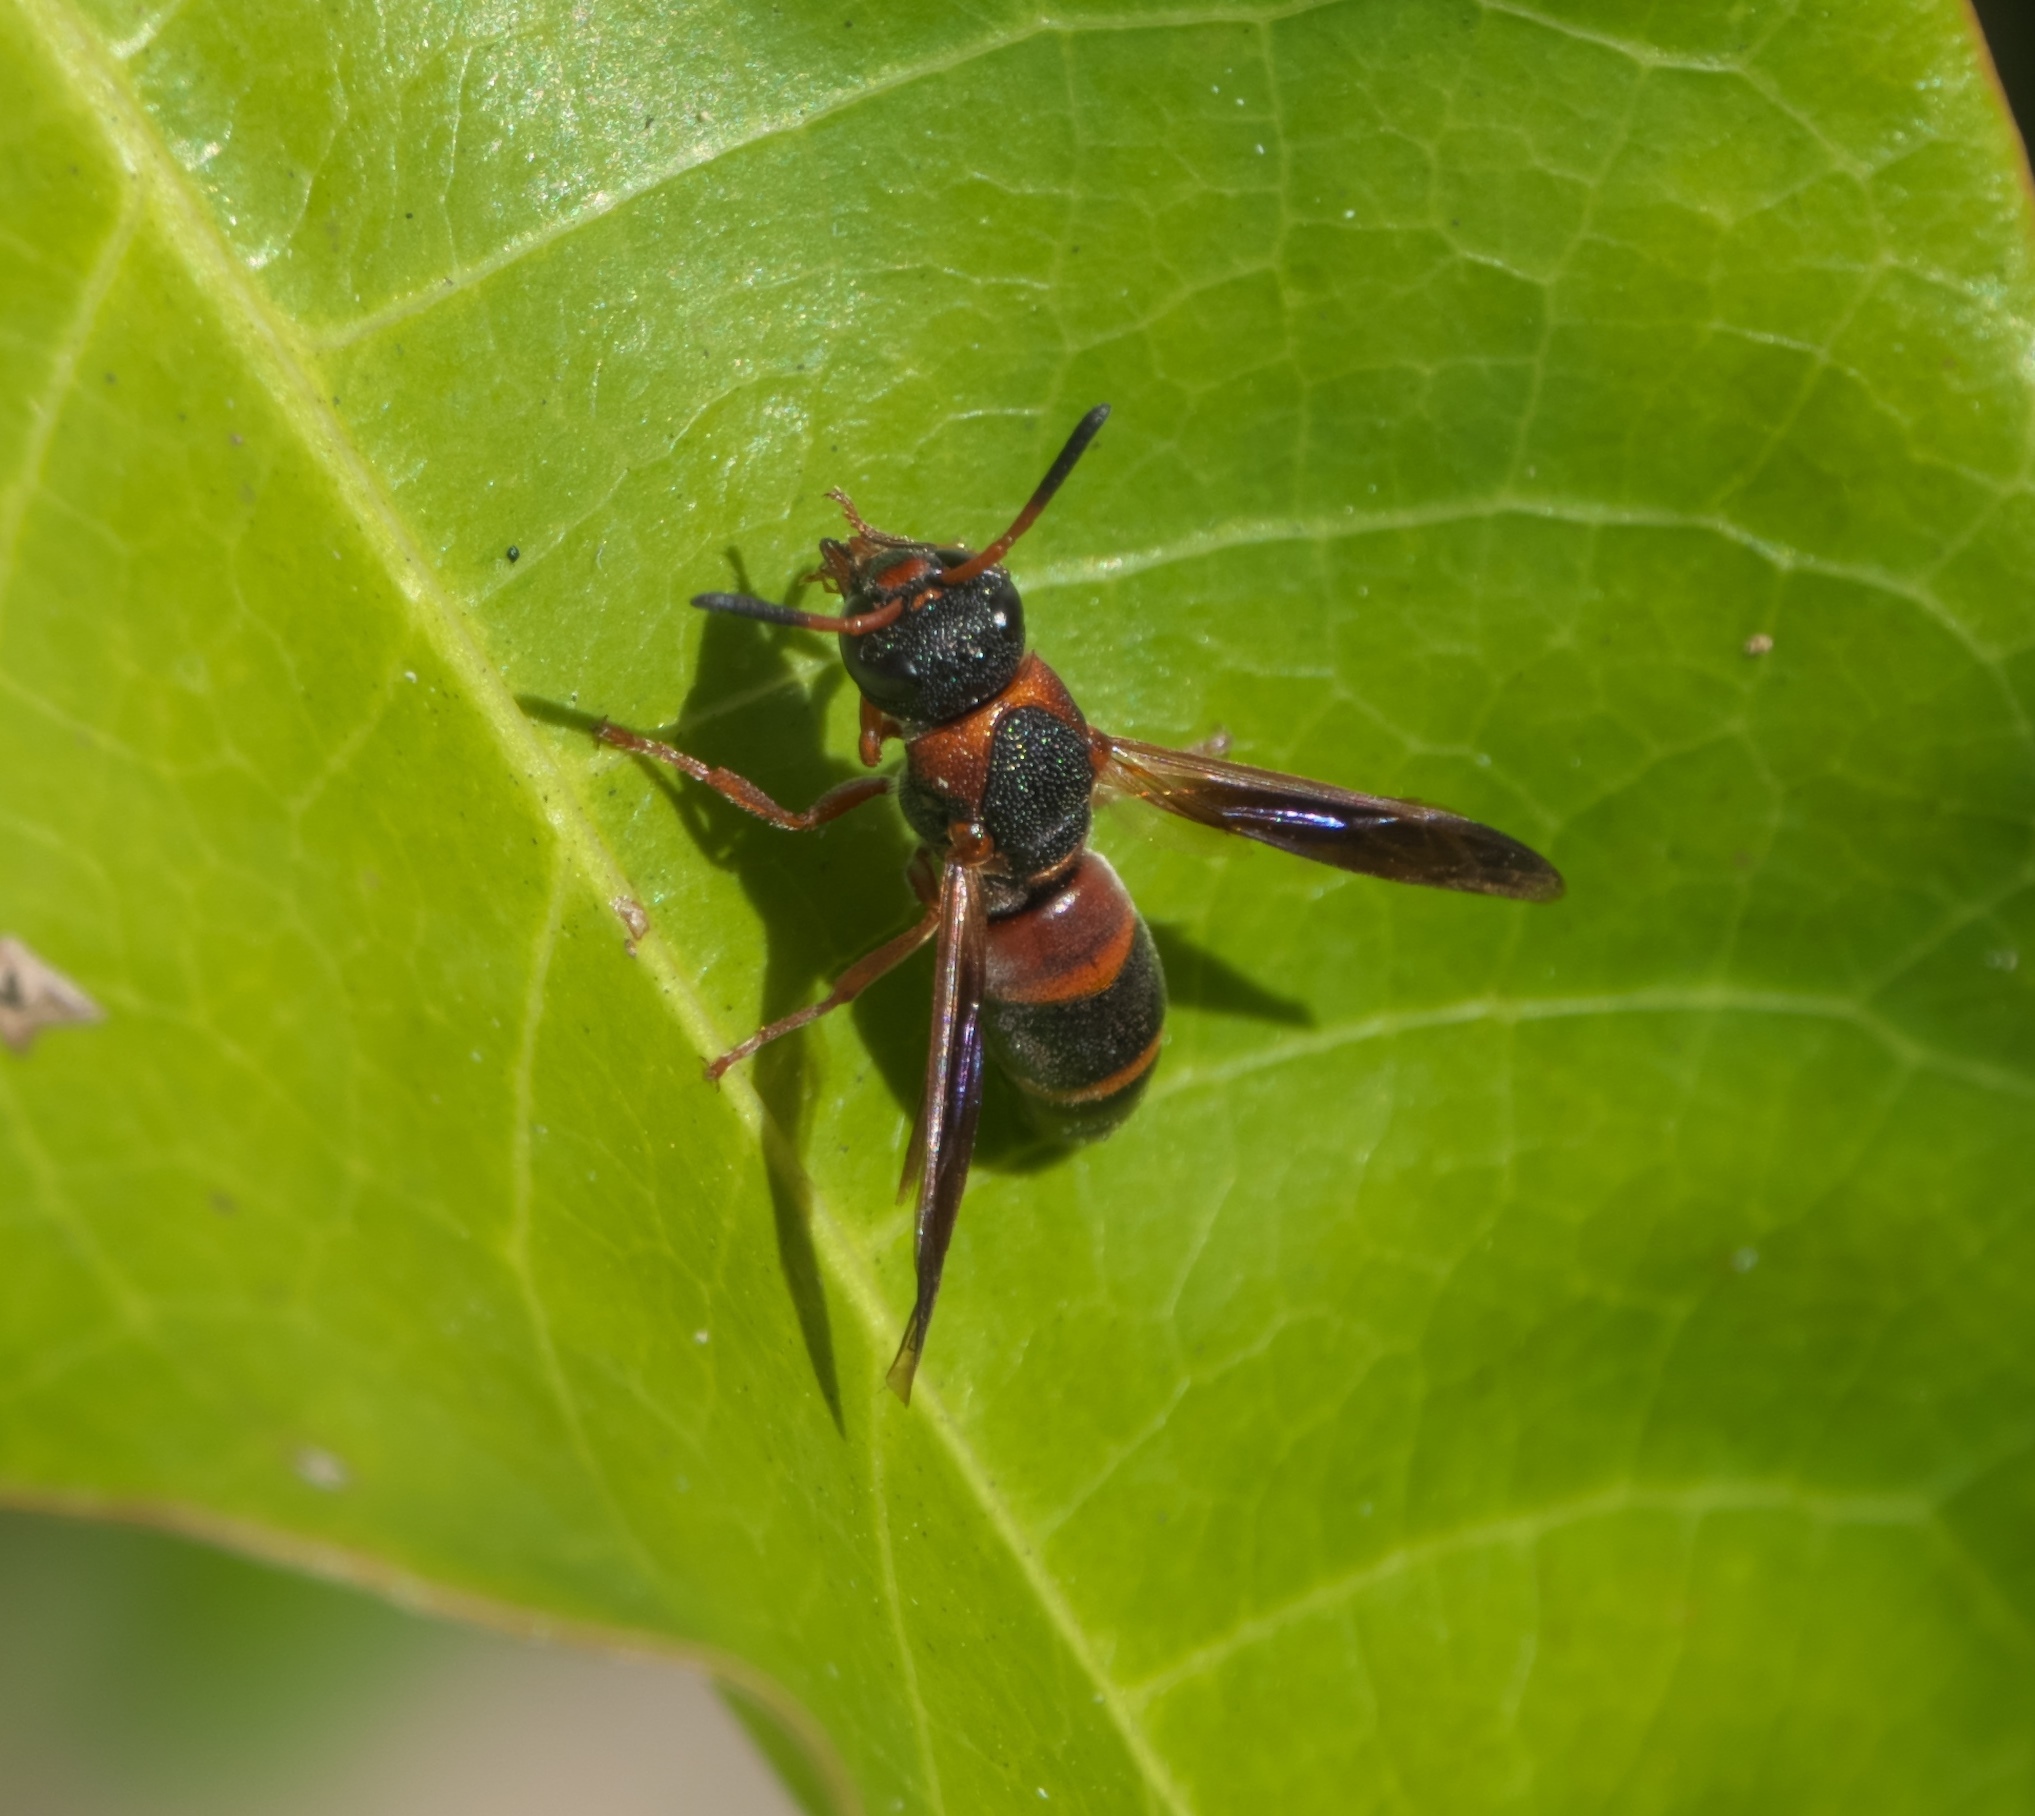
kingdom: Animalia
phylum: Arthropoda
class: Insecta
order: Hymenoptera
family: Eumenidae
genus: Pachodynerus
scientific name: Pachodynerus erynnis
